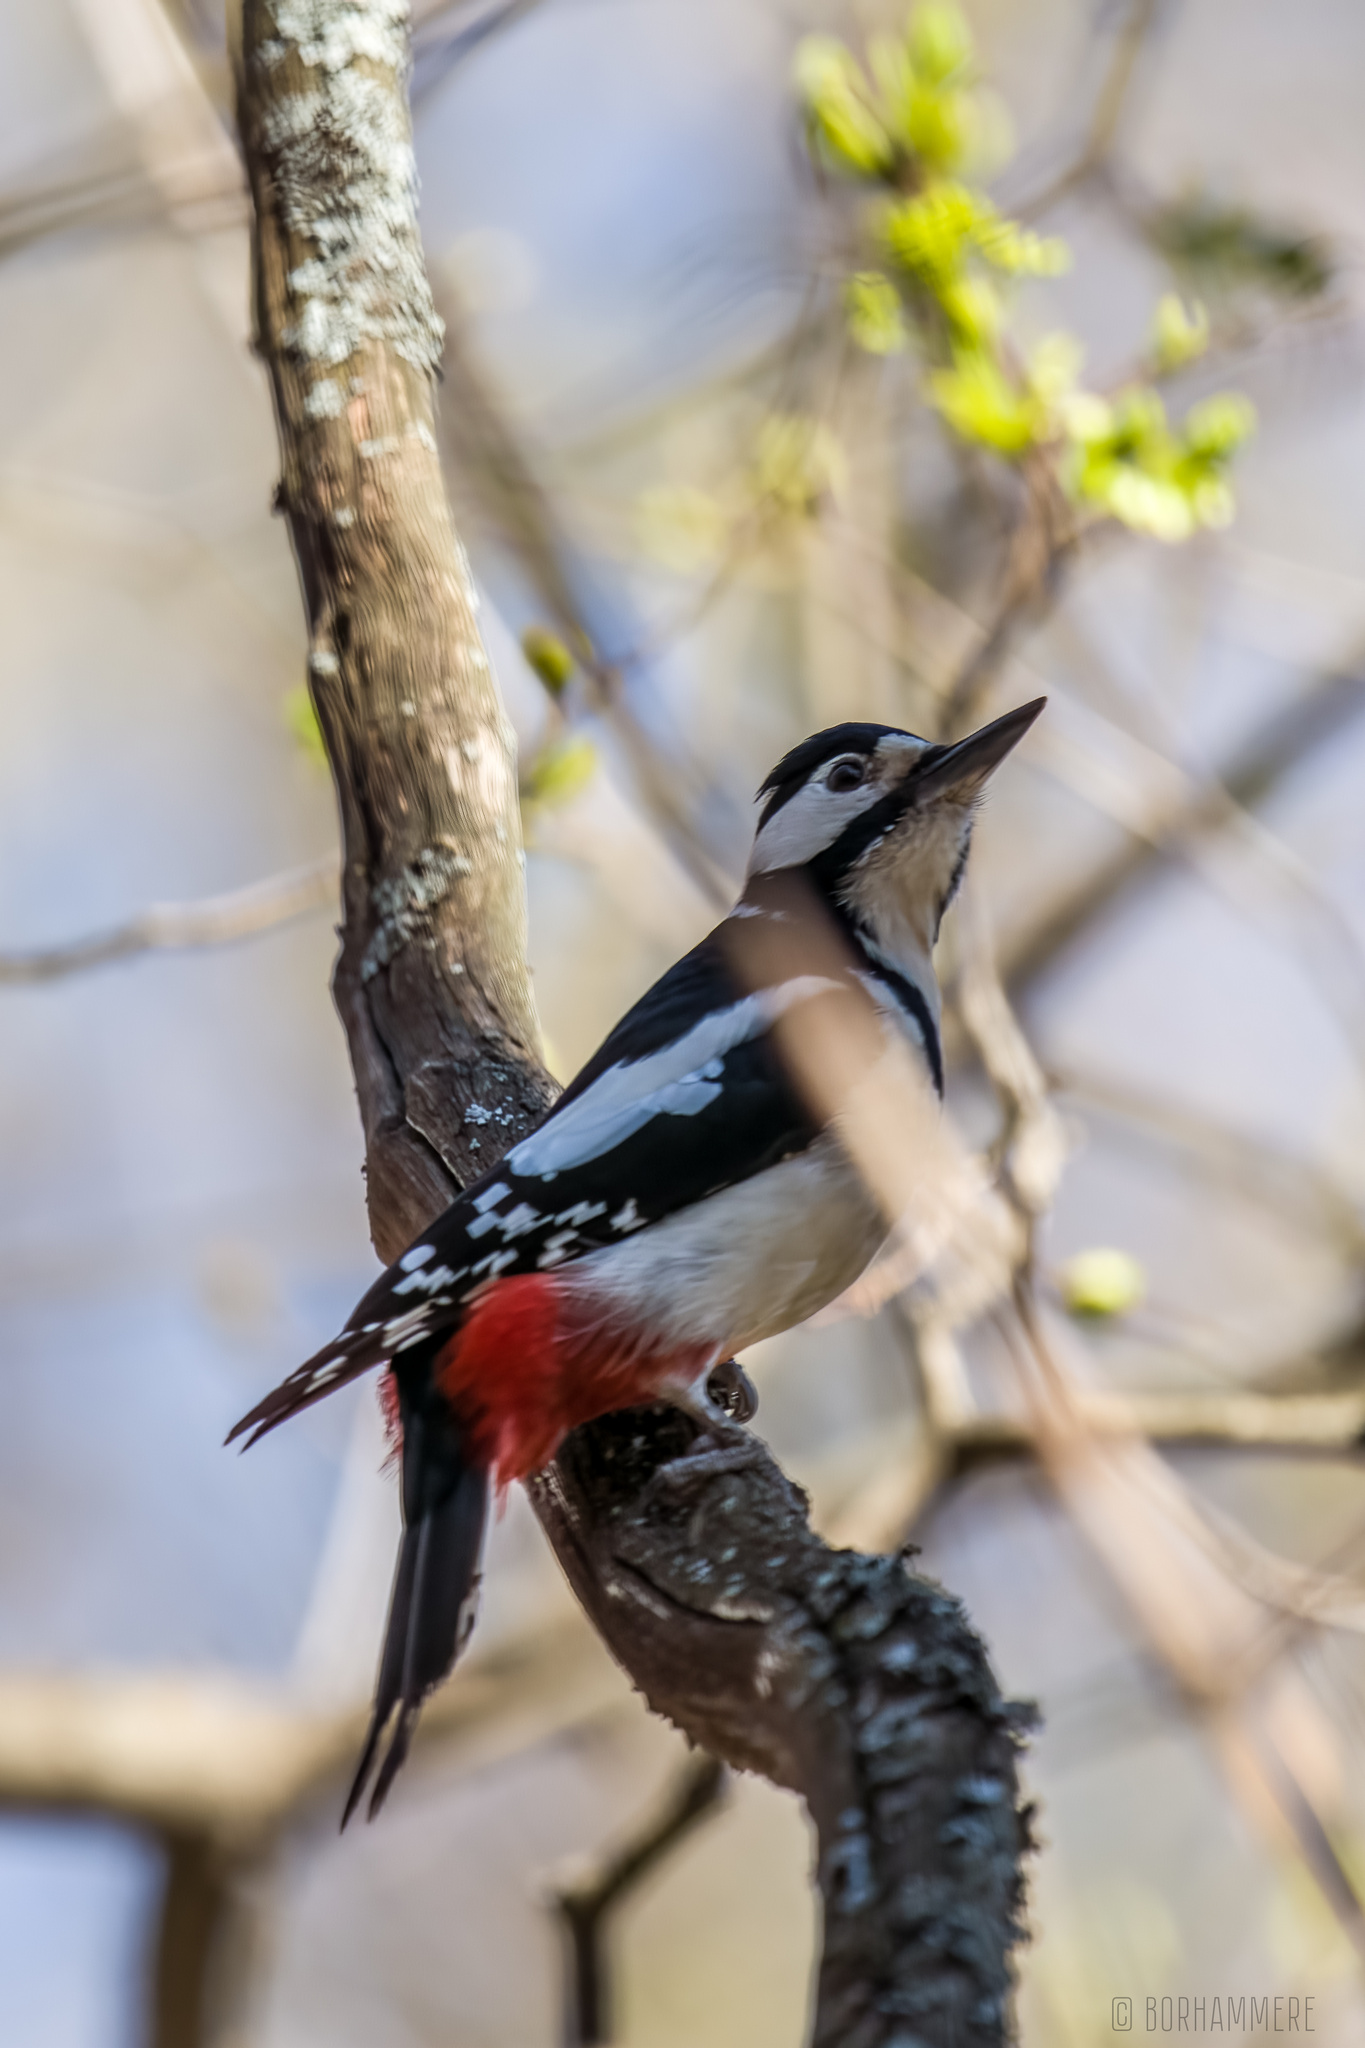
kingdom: Animalia
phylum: Chordata
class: Aves
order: Piciformes
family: Picidae
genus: Dendrocopos
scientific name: Dendrocopos major
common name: Great spotted woodpecker
